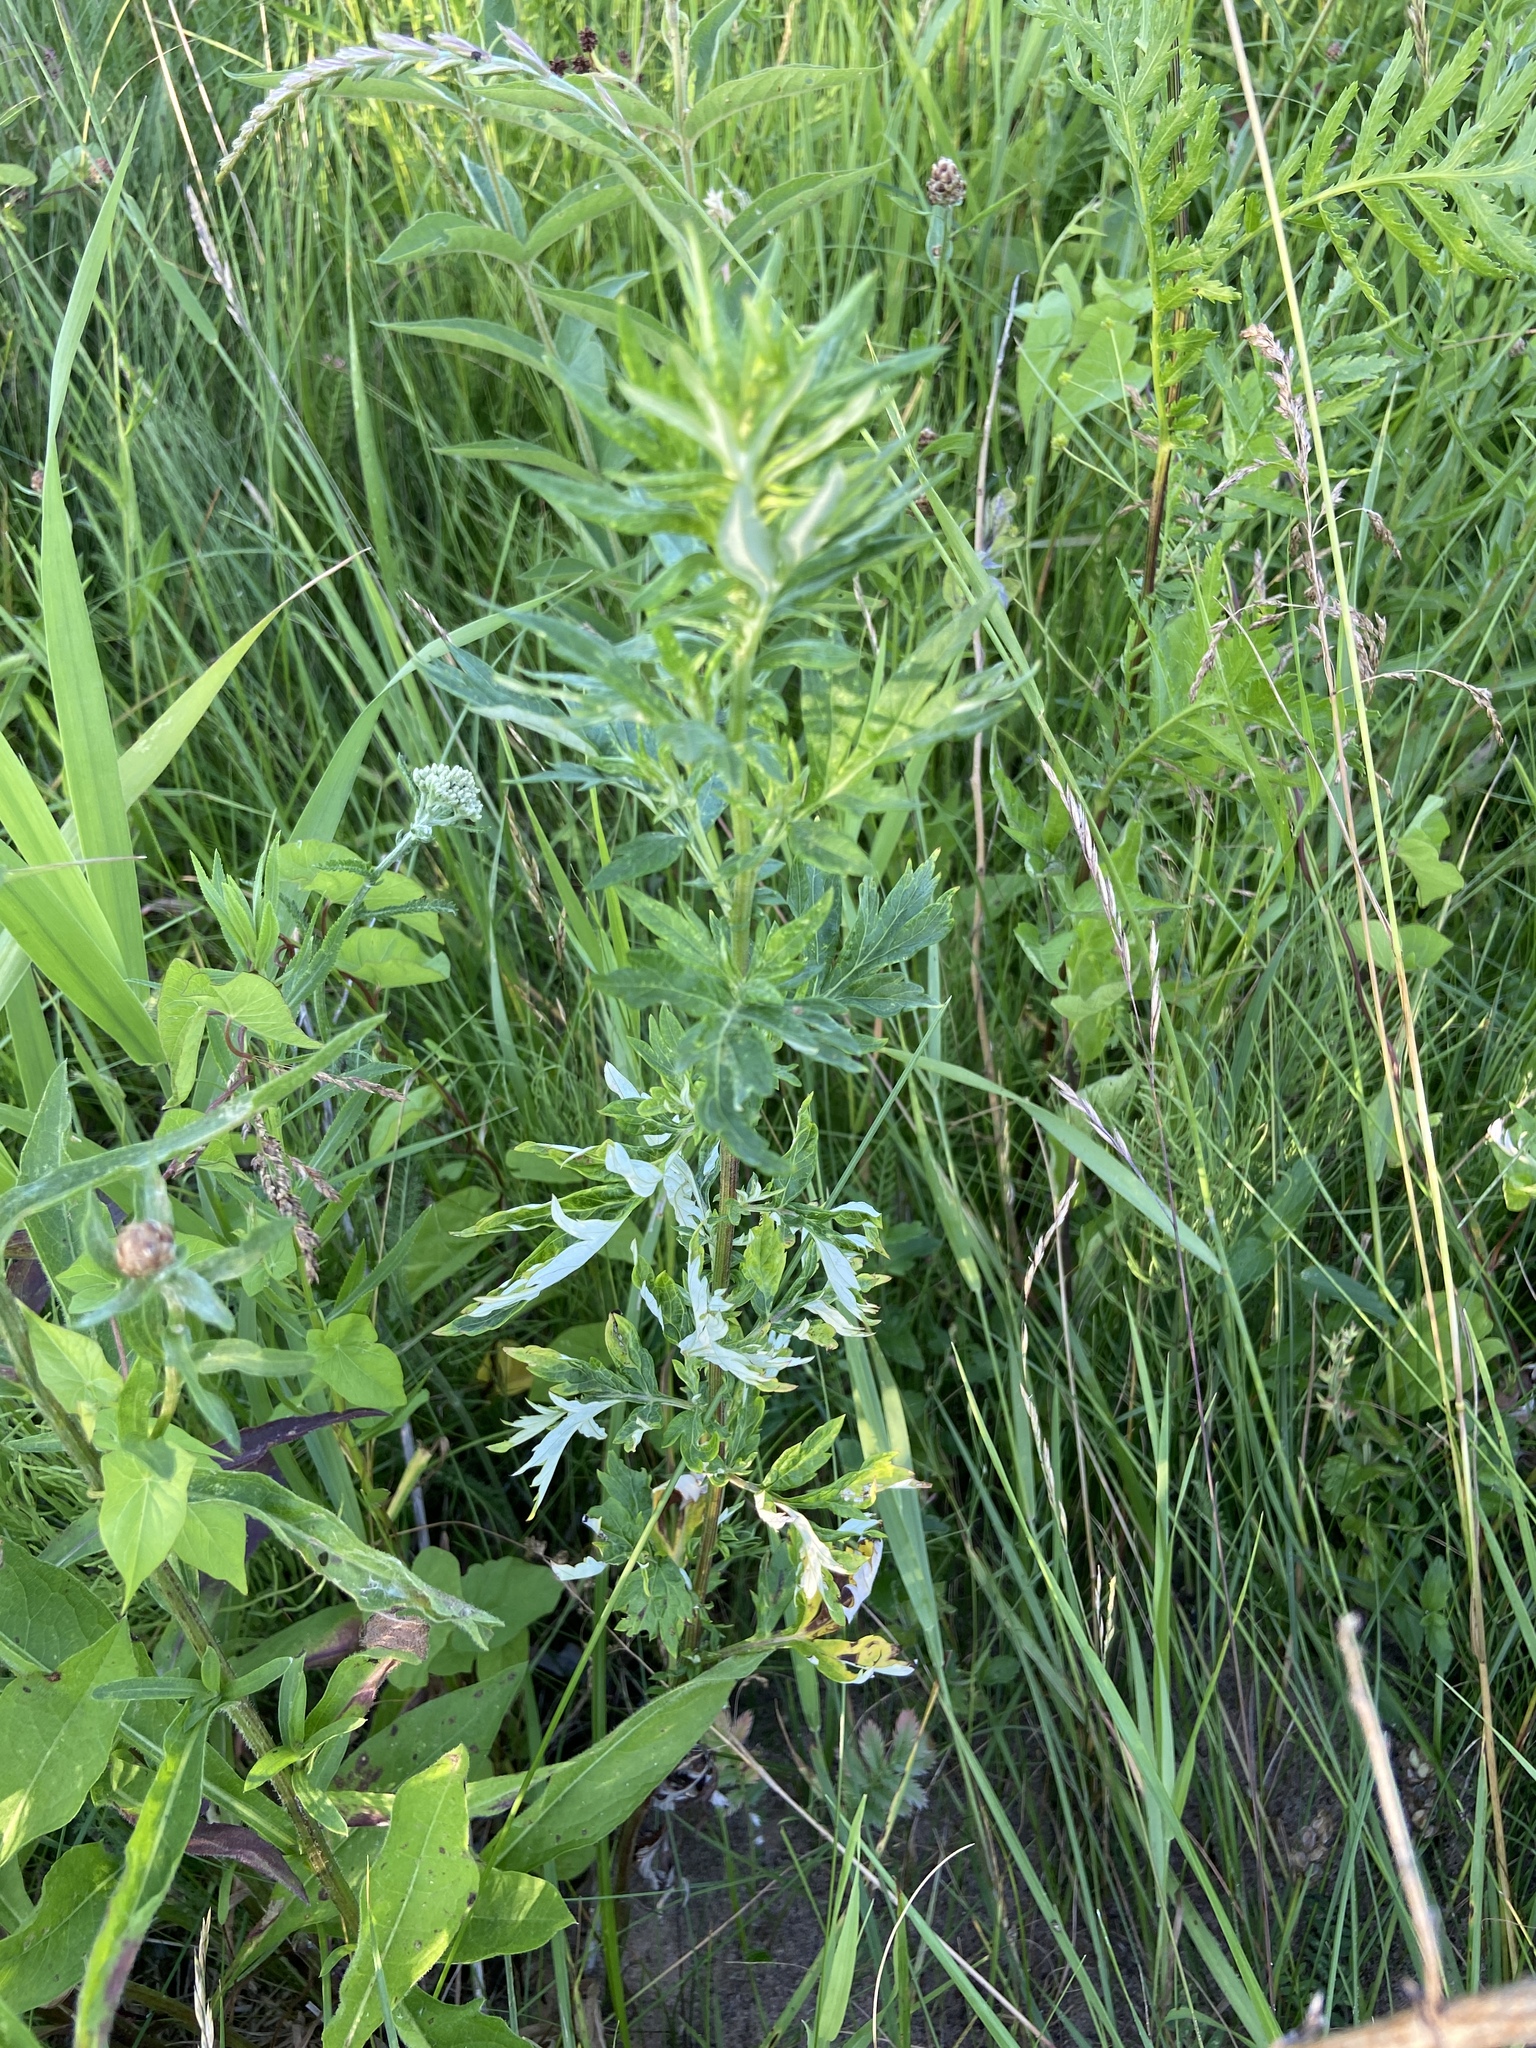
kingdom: Plantae
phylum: Tracheophyta
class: Magnoliopsida
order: Asterales
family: Asteraceae
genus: Artemisia
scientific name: Artemisia vulgaris
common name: Mugwort
